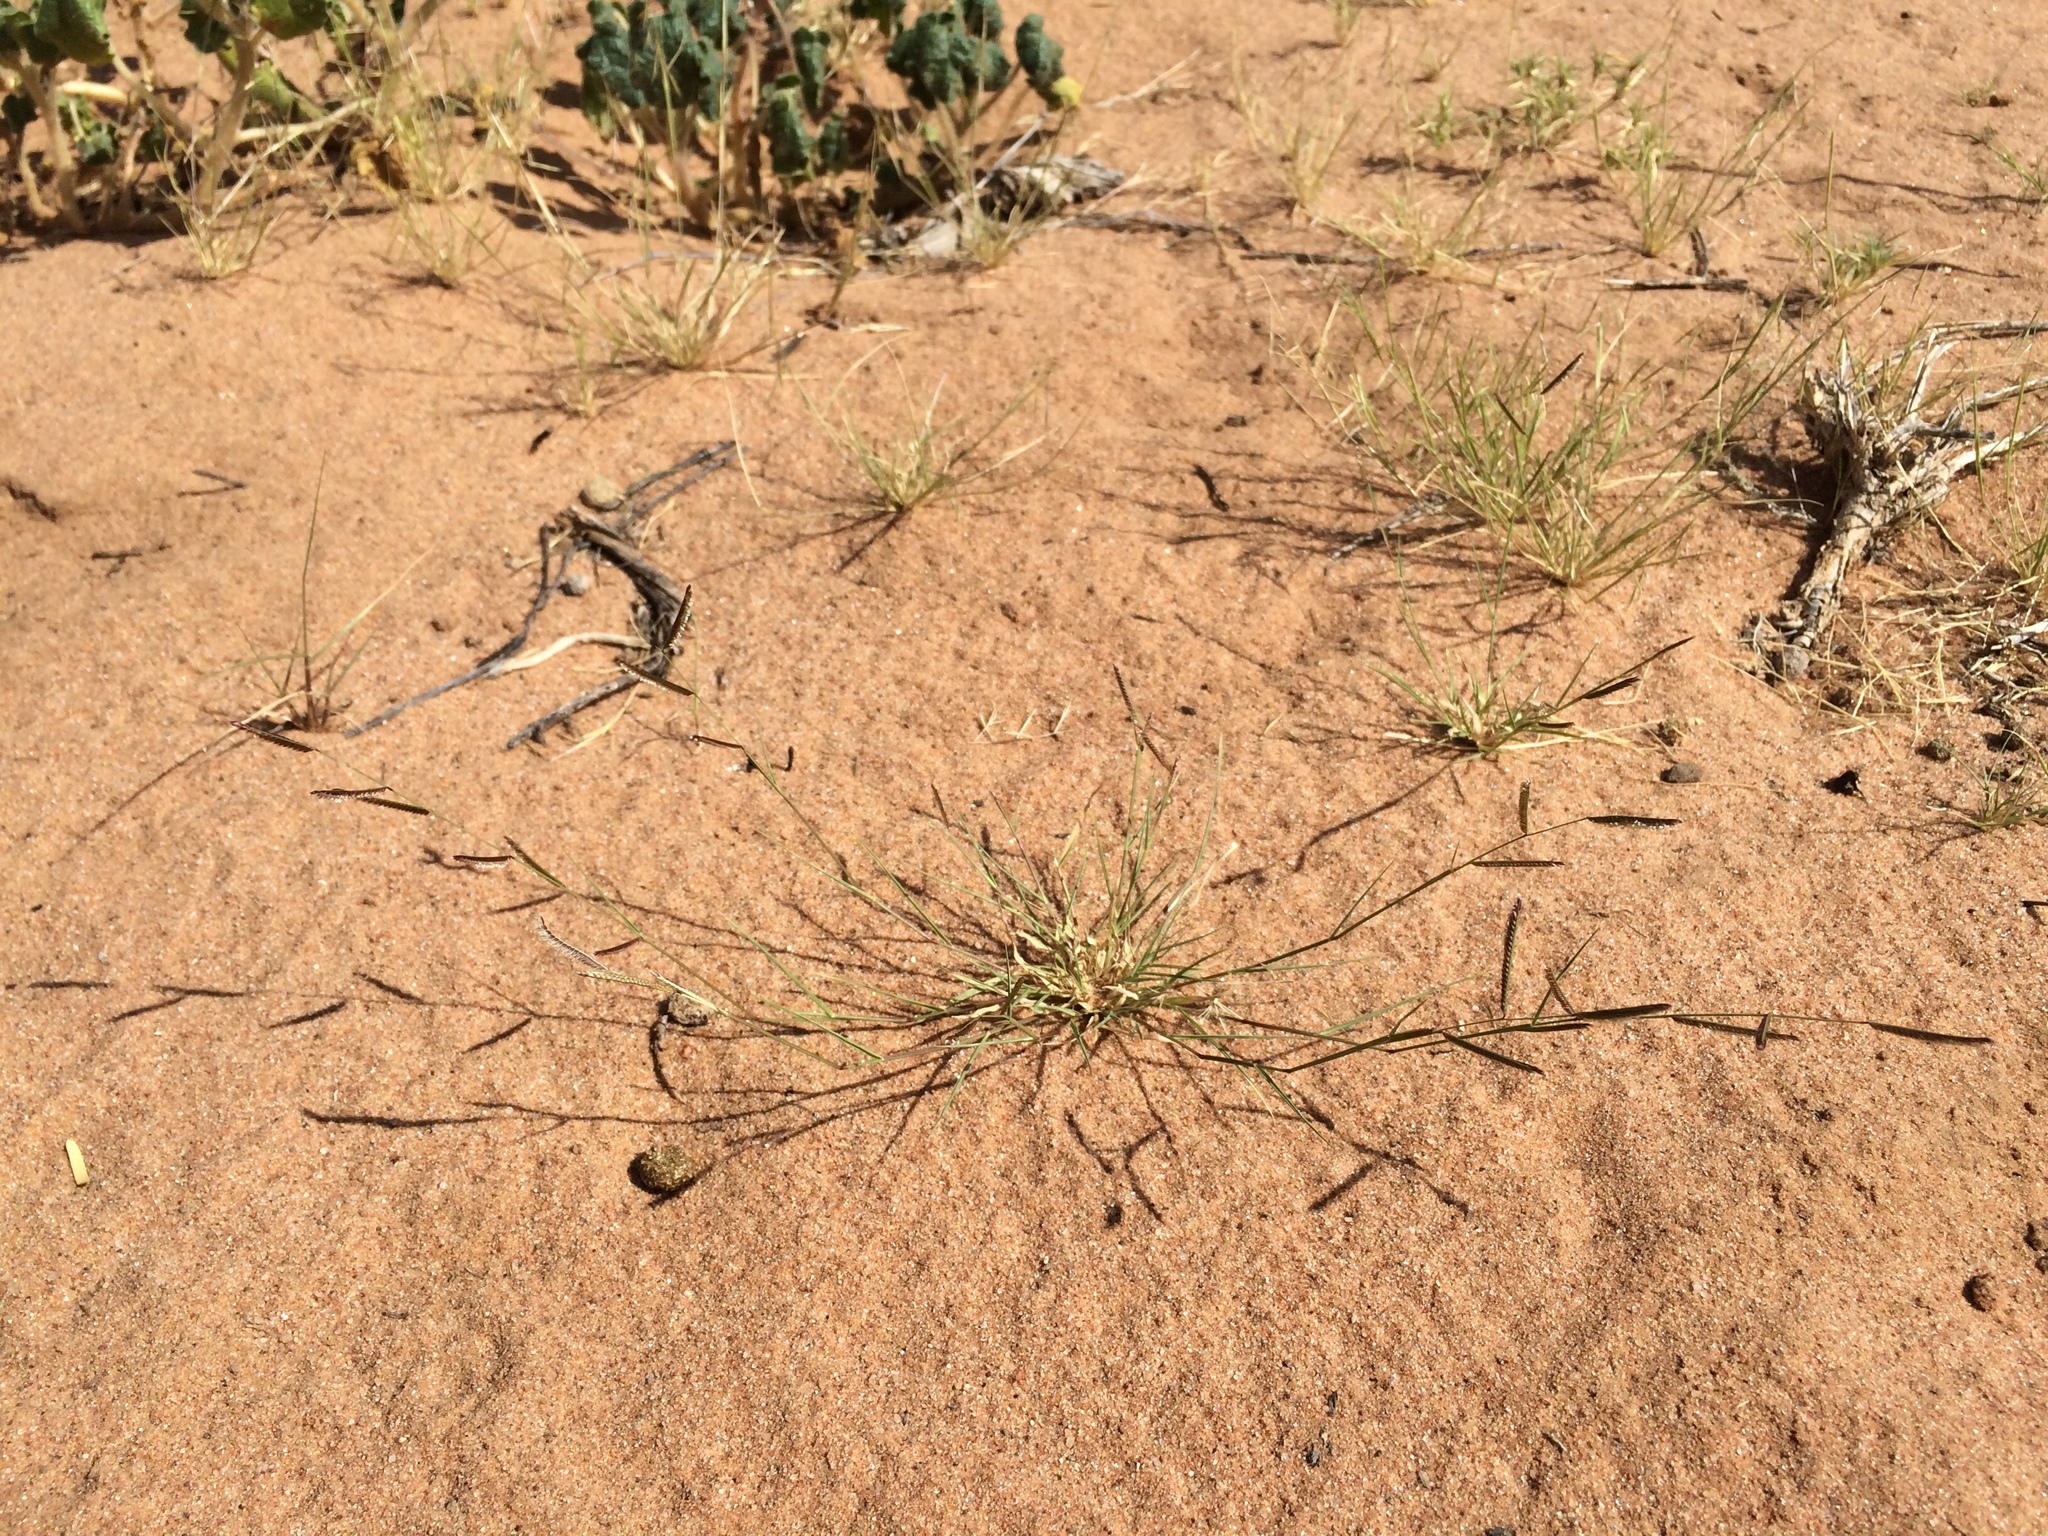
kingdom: Plantae
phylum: Tracheophyta
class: Liliopsida
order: Poales
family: Poaceae
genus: Bouteloua
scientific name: Bouteloua barbata
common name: Six-weeks grama
